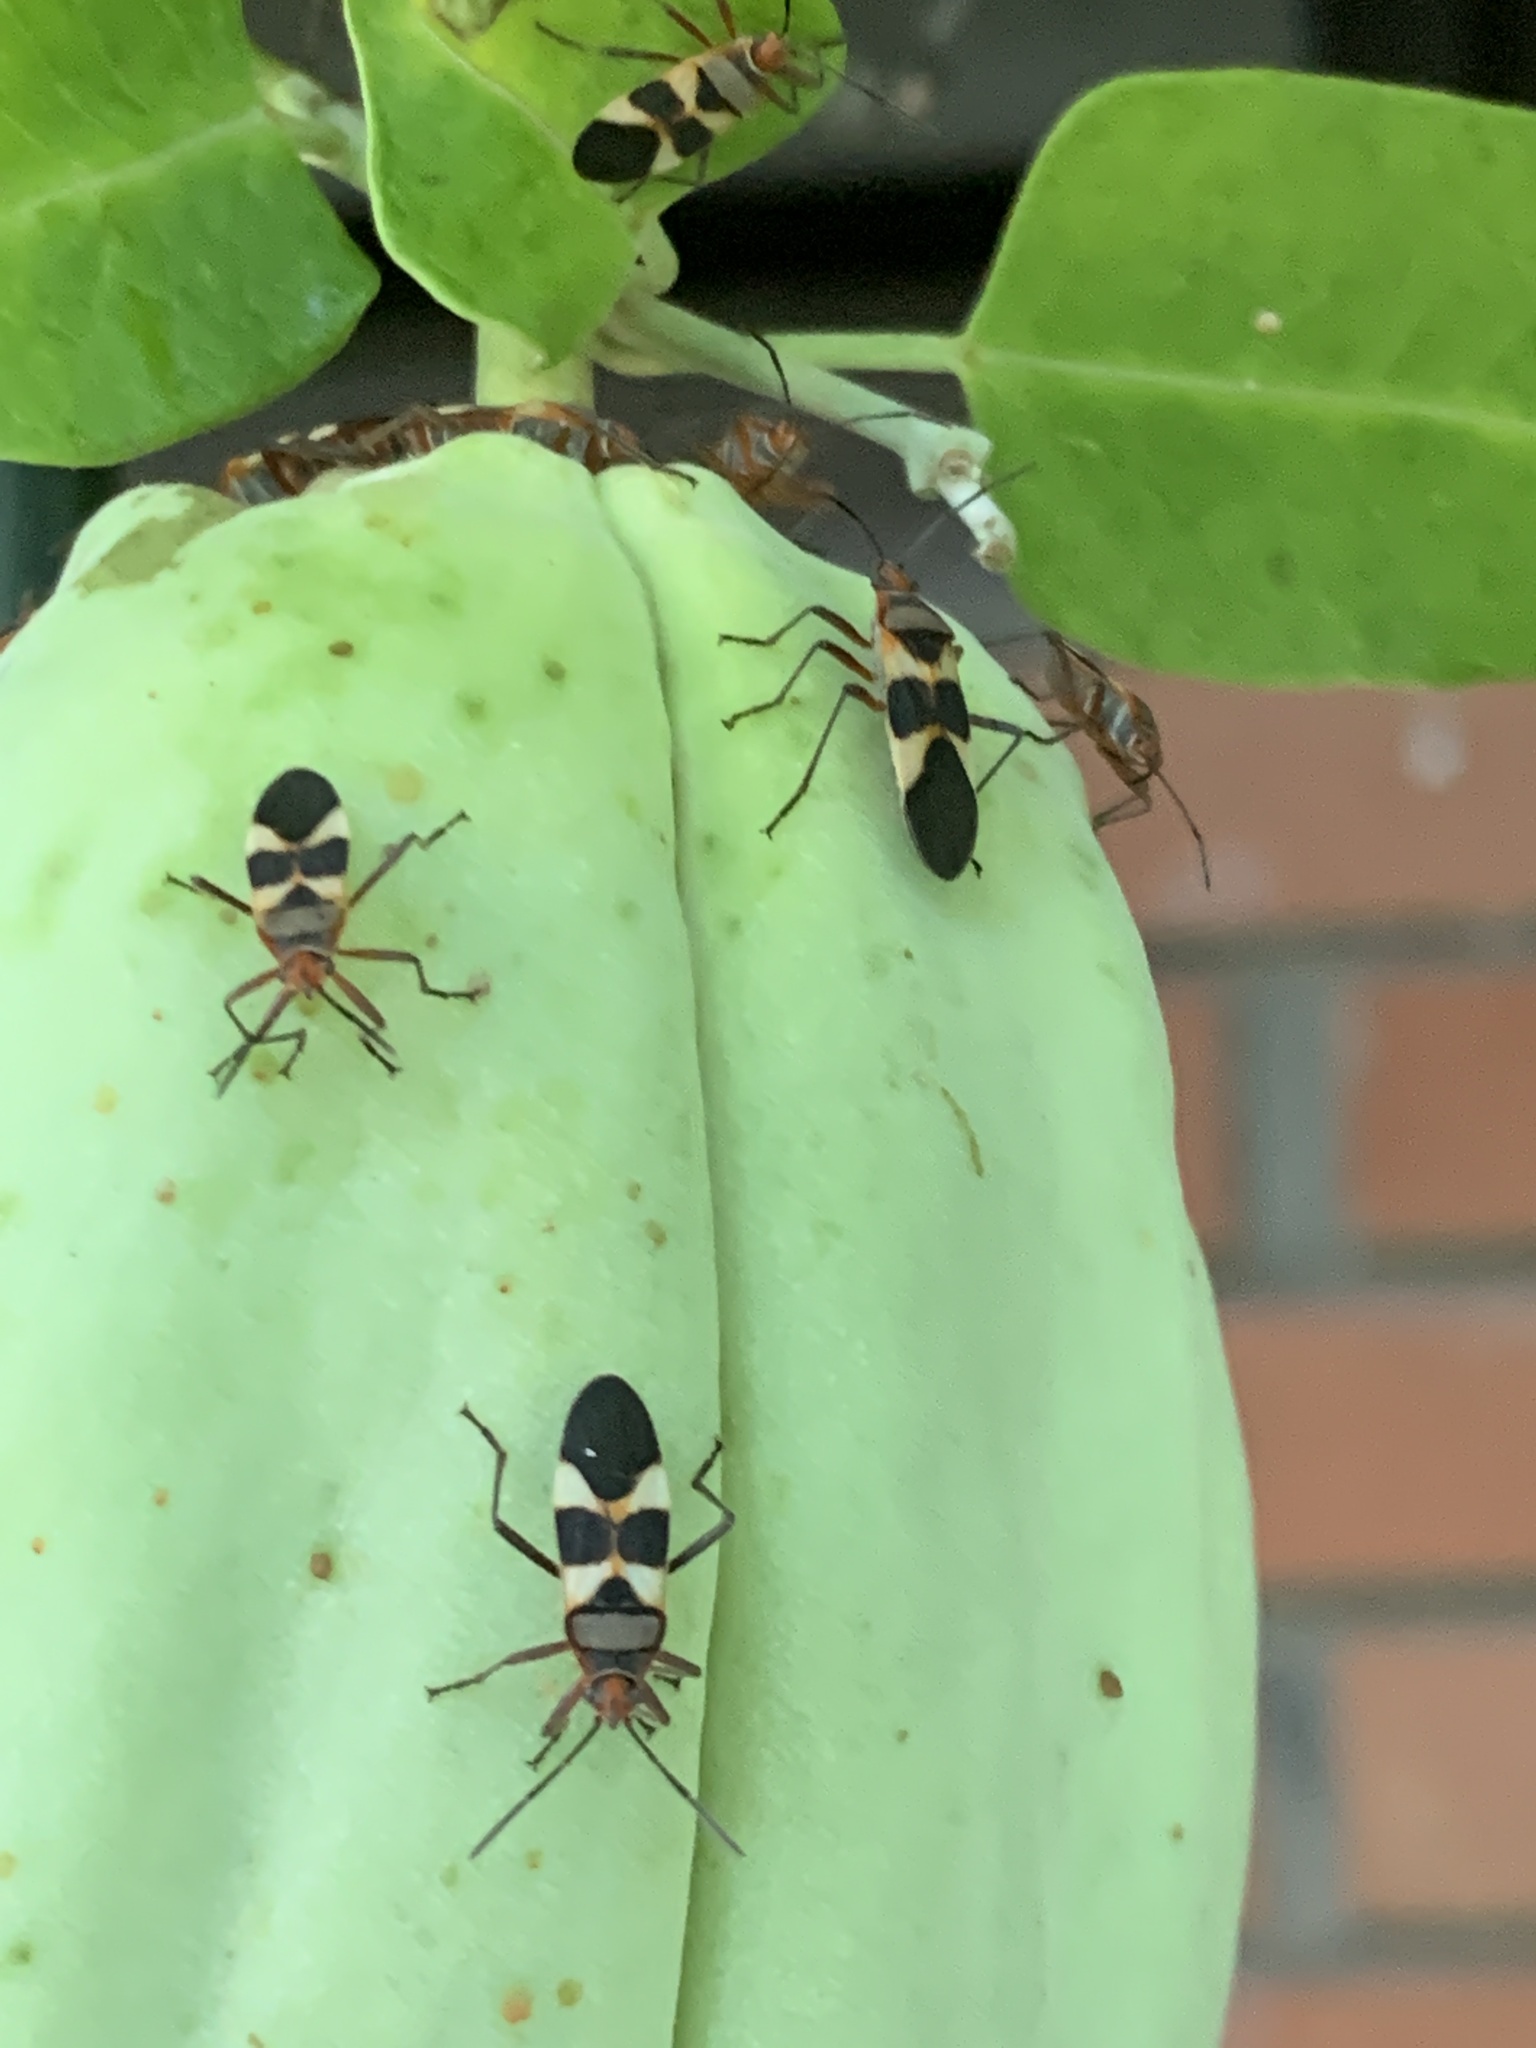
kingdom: Animalia
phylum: Arthropoda
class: Insecta
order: Hemiptera
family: Lygaeidae
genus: Oncopeltus
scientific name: Oncopeltus unifasciatellus
